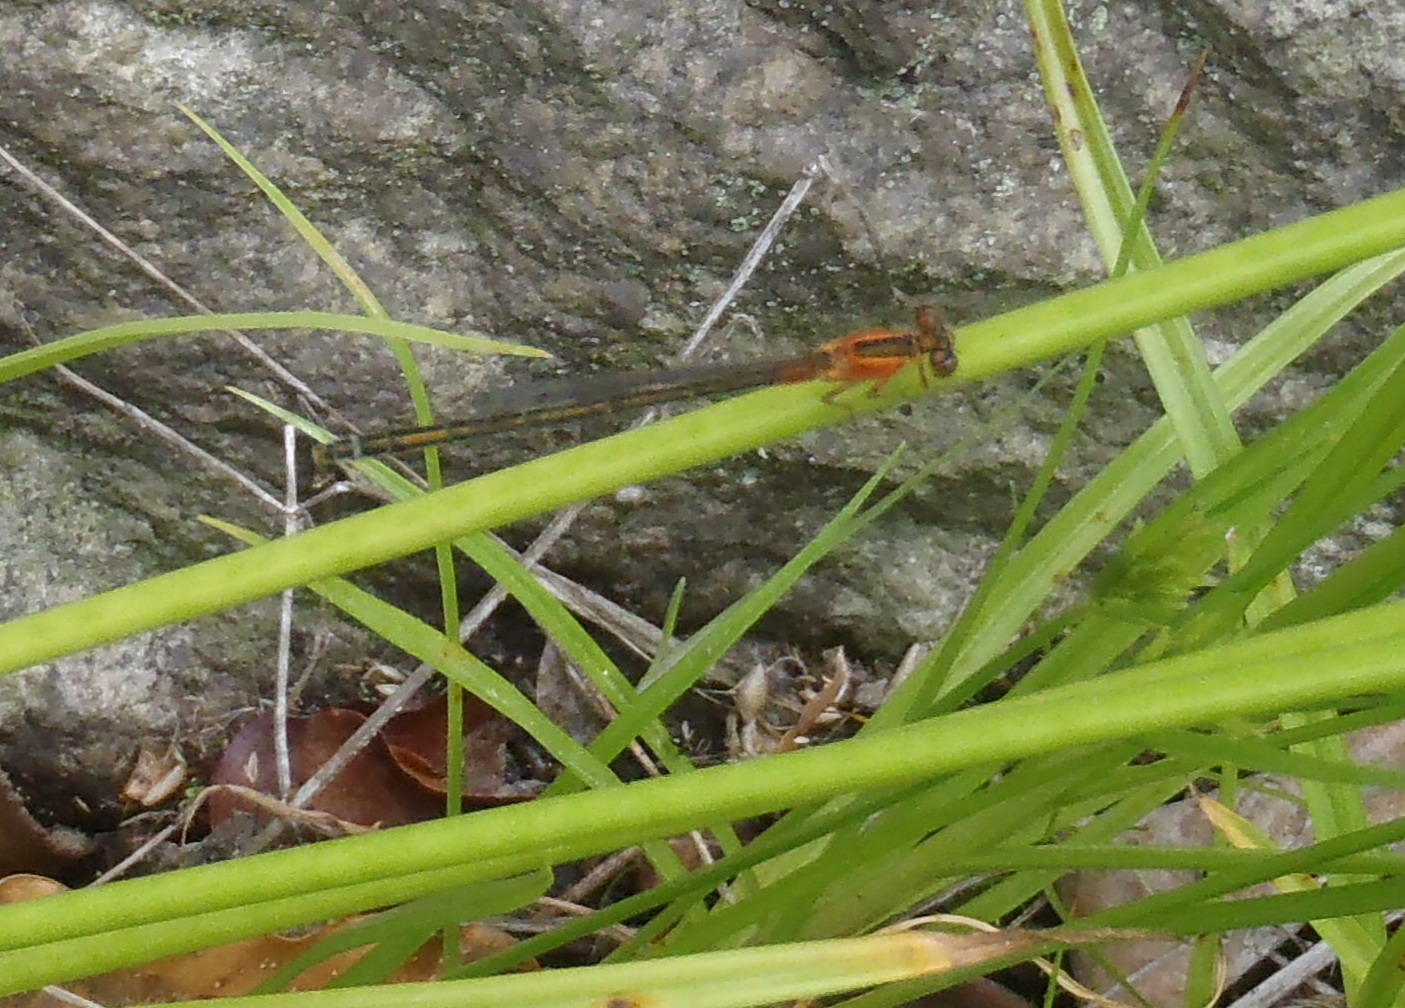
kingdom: Animalia
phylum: Arthropoda
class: Insecta
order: Odonata
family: Coenagrionidae
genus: Ischnura
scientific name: Ischnura senegalensis
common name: Tropical bluetail
